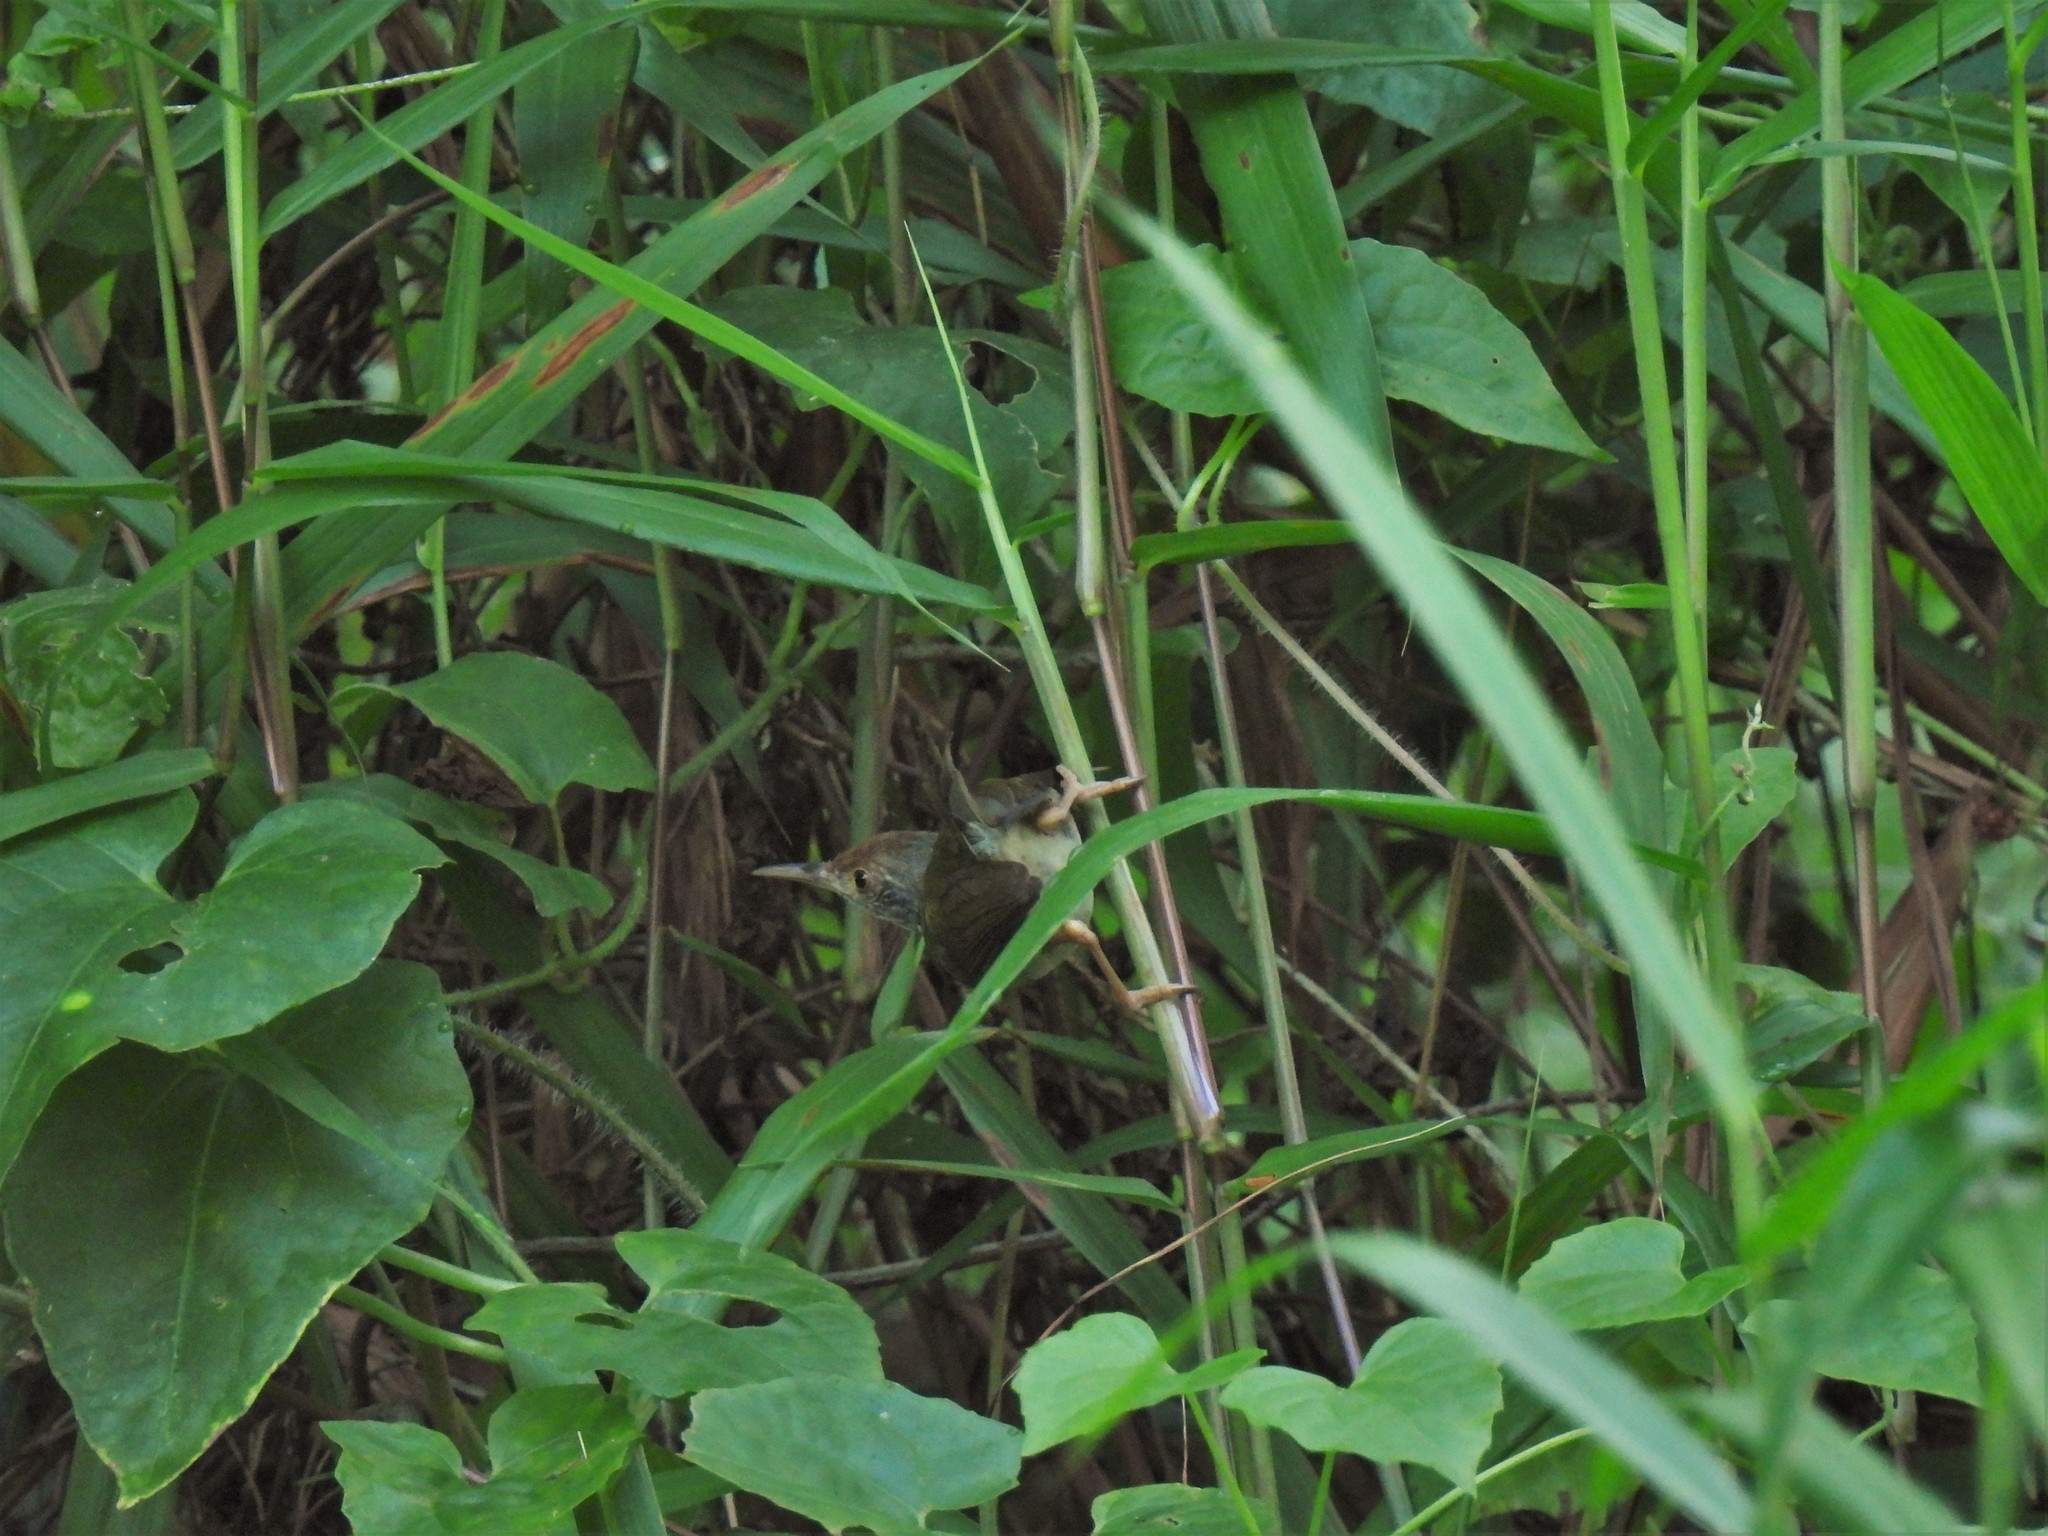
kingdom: Animalia
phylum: Chordata
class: Aves
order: Passeriformes
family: Cisticolidae
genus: Orthotomus
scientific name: Orthotomus sutorius
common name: Common tailorbird
